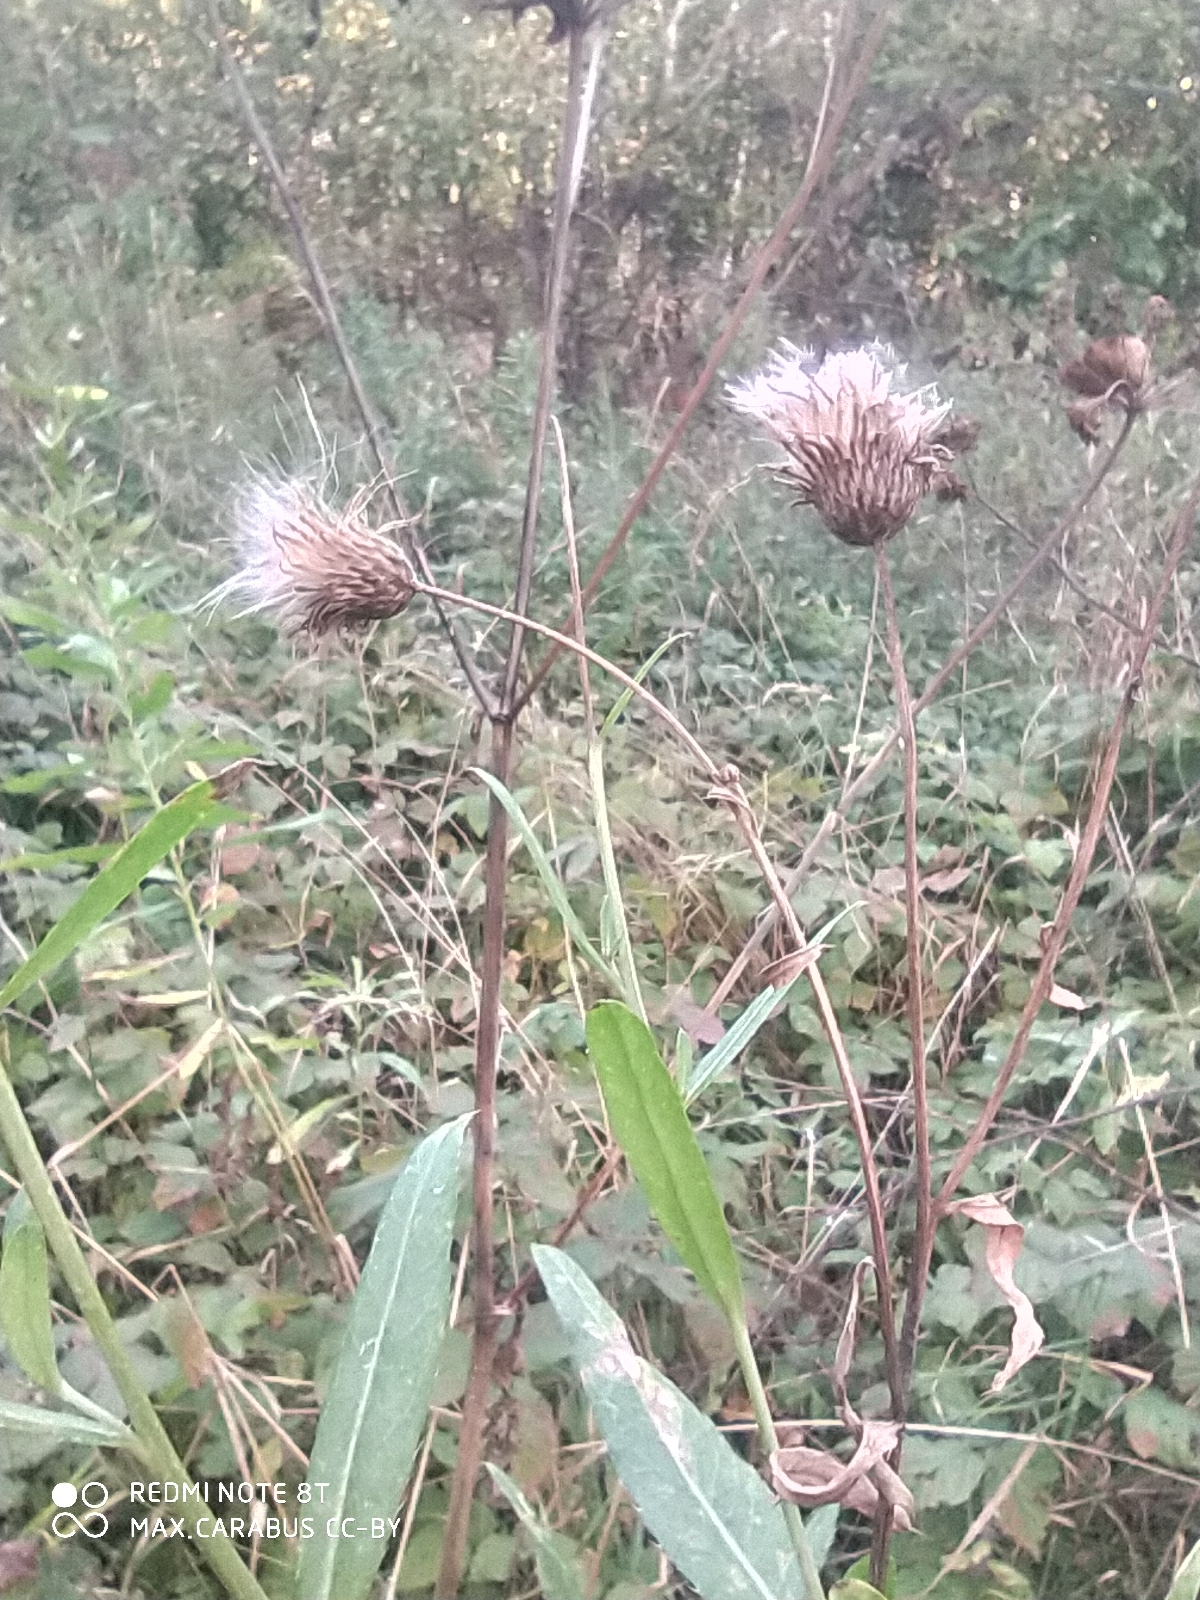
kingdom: Plantae
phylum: Tracheophyta
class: Magnoliopsida
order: Asterales
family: Asteraceae
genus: Cirsium
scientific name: Cirsium arvense
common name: Creeping thistle
